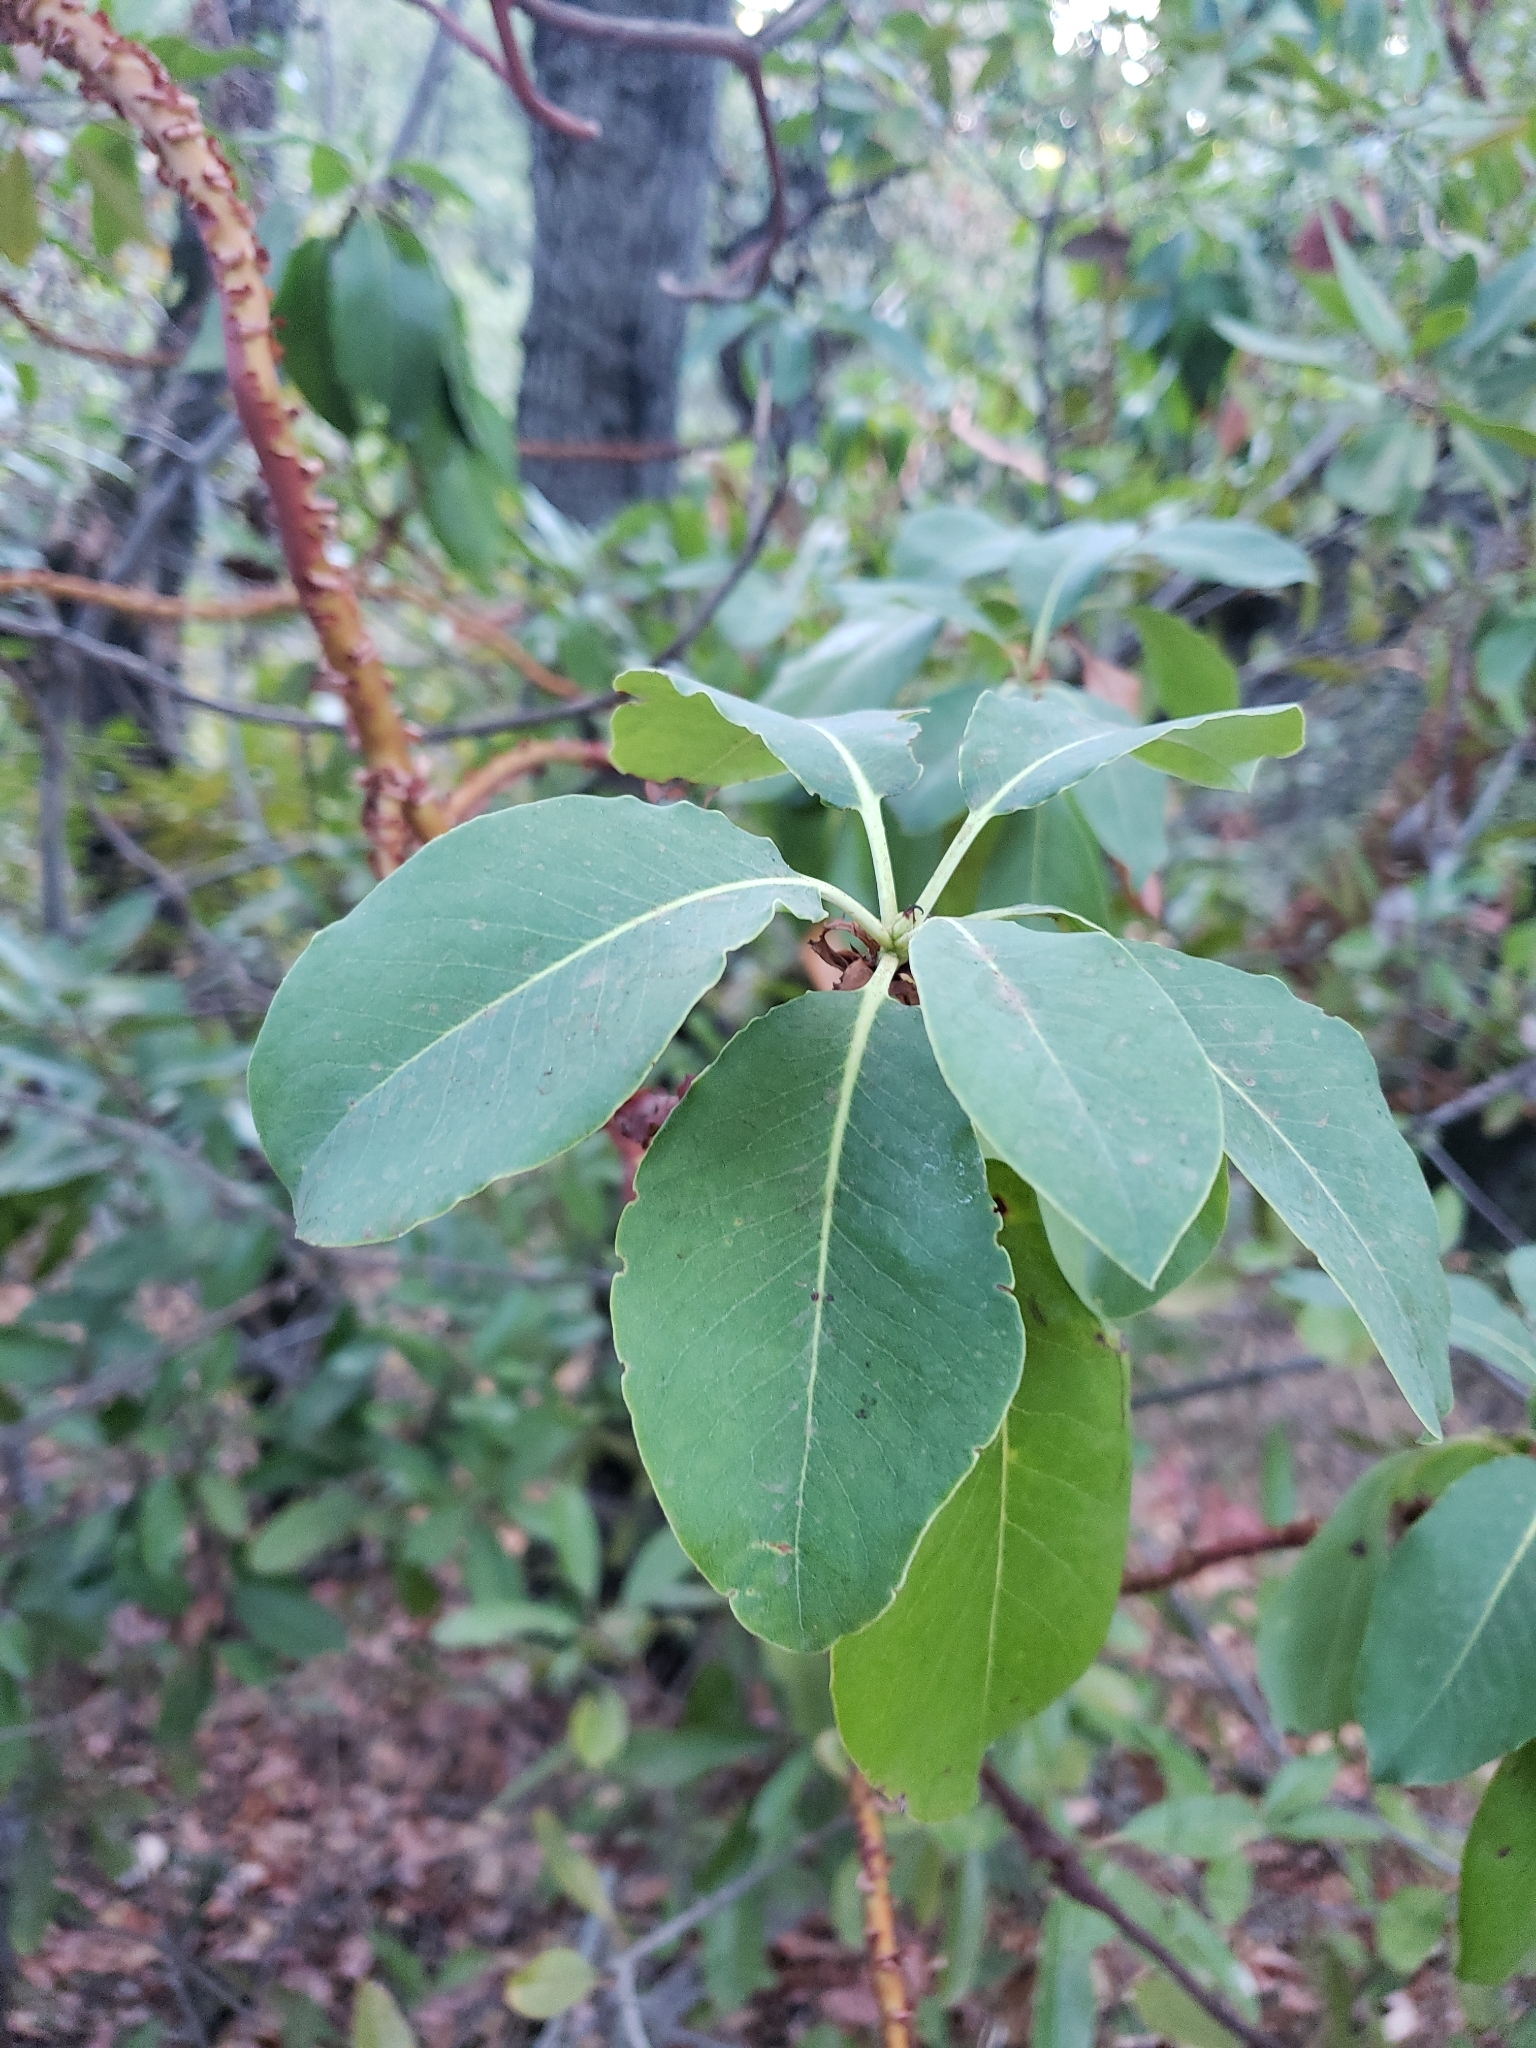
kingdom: Plantae
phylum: Tracheophyta
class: Magnoliopsida
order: Ericales
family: Ericaceae
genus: Arbutus
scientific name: Arbutus menziesii
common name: Pacific madrone
